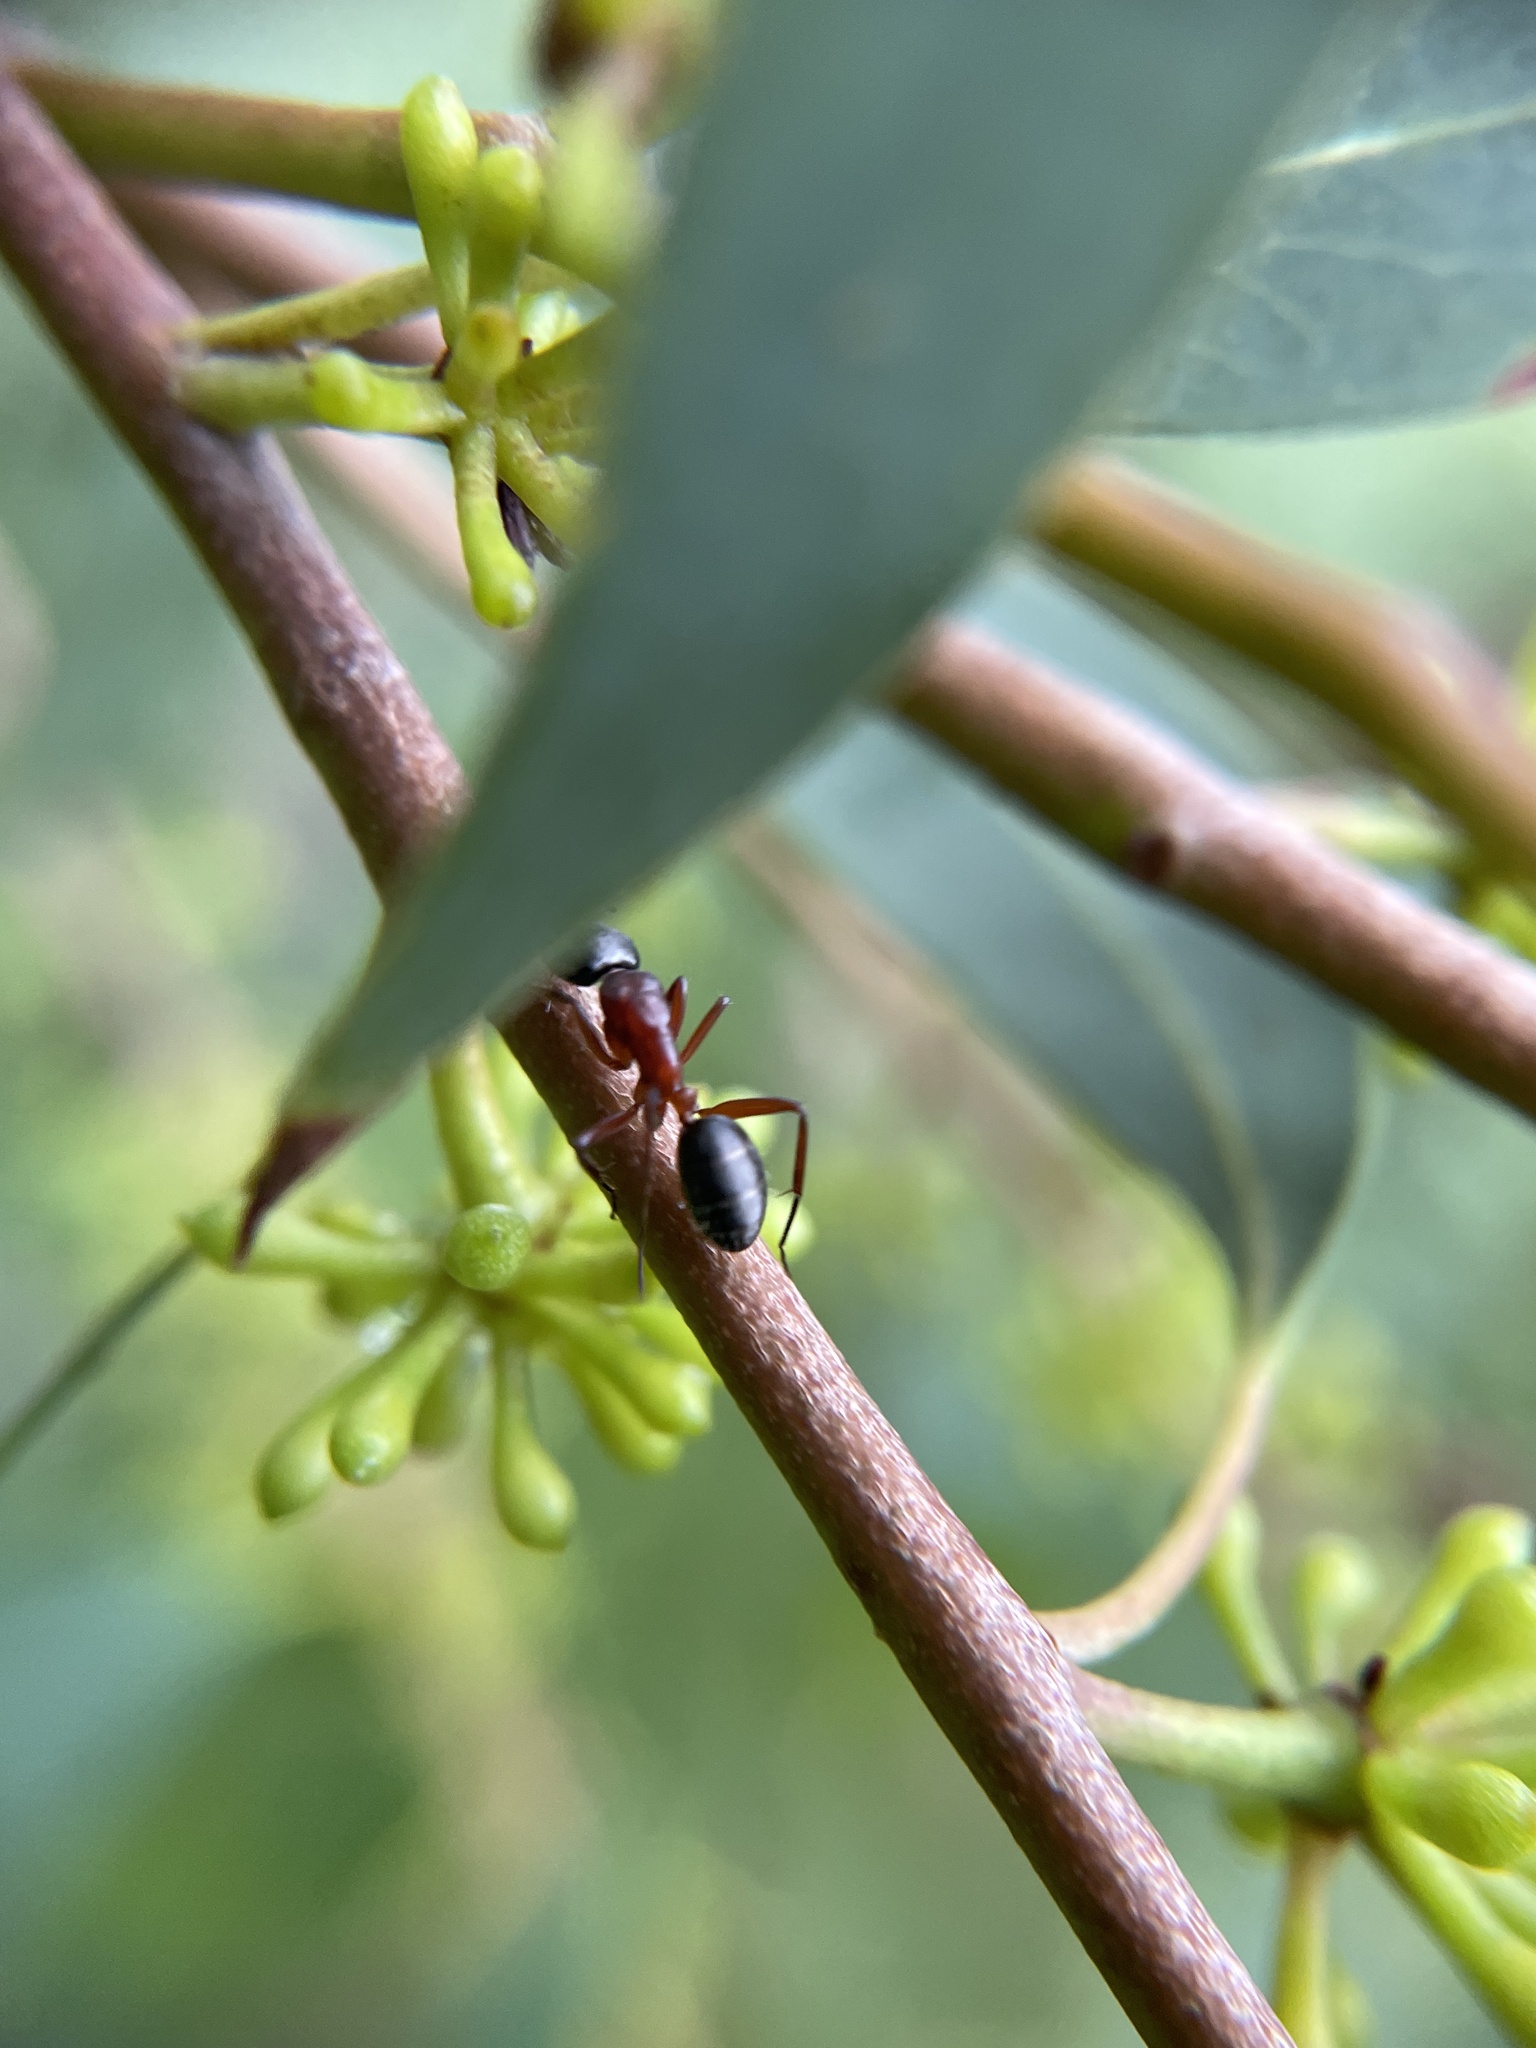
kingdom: Animalia
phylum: Arthropoda
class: Insecta
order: Hymenoptera
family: Formicidae
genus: Camponotus
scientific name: Camponotus innexus
